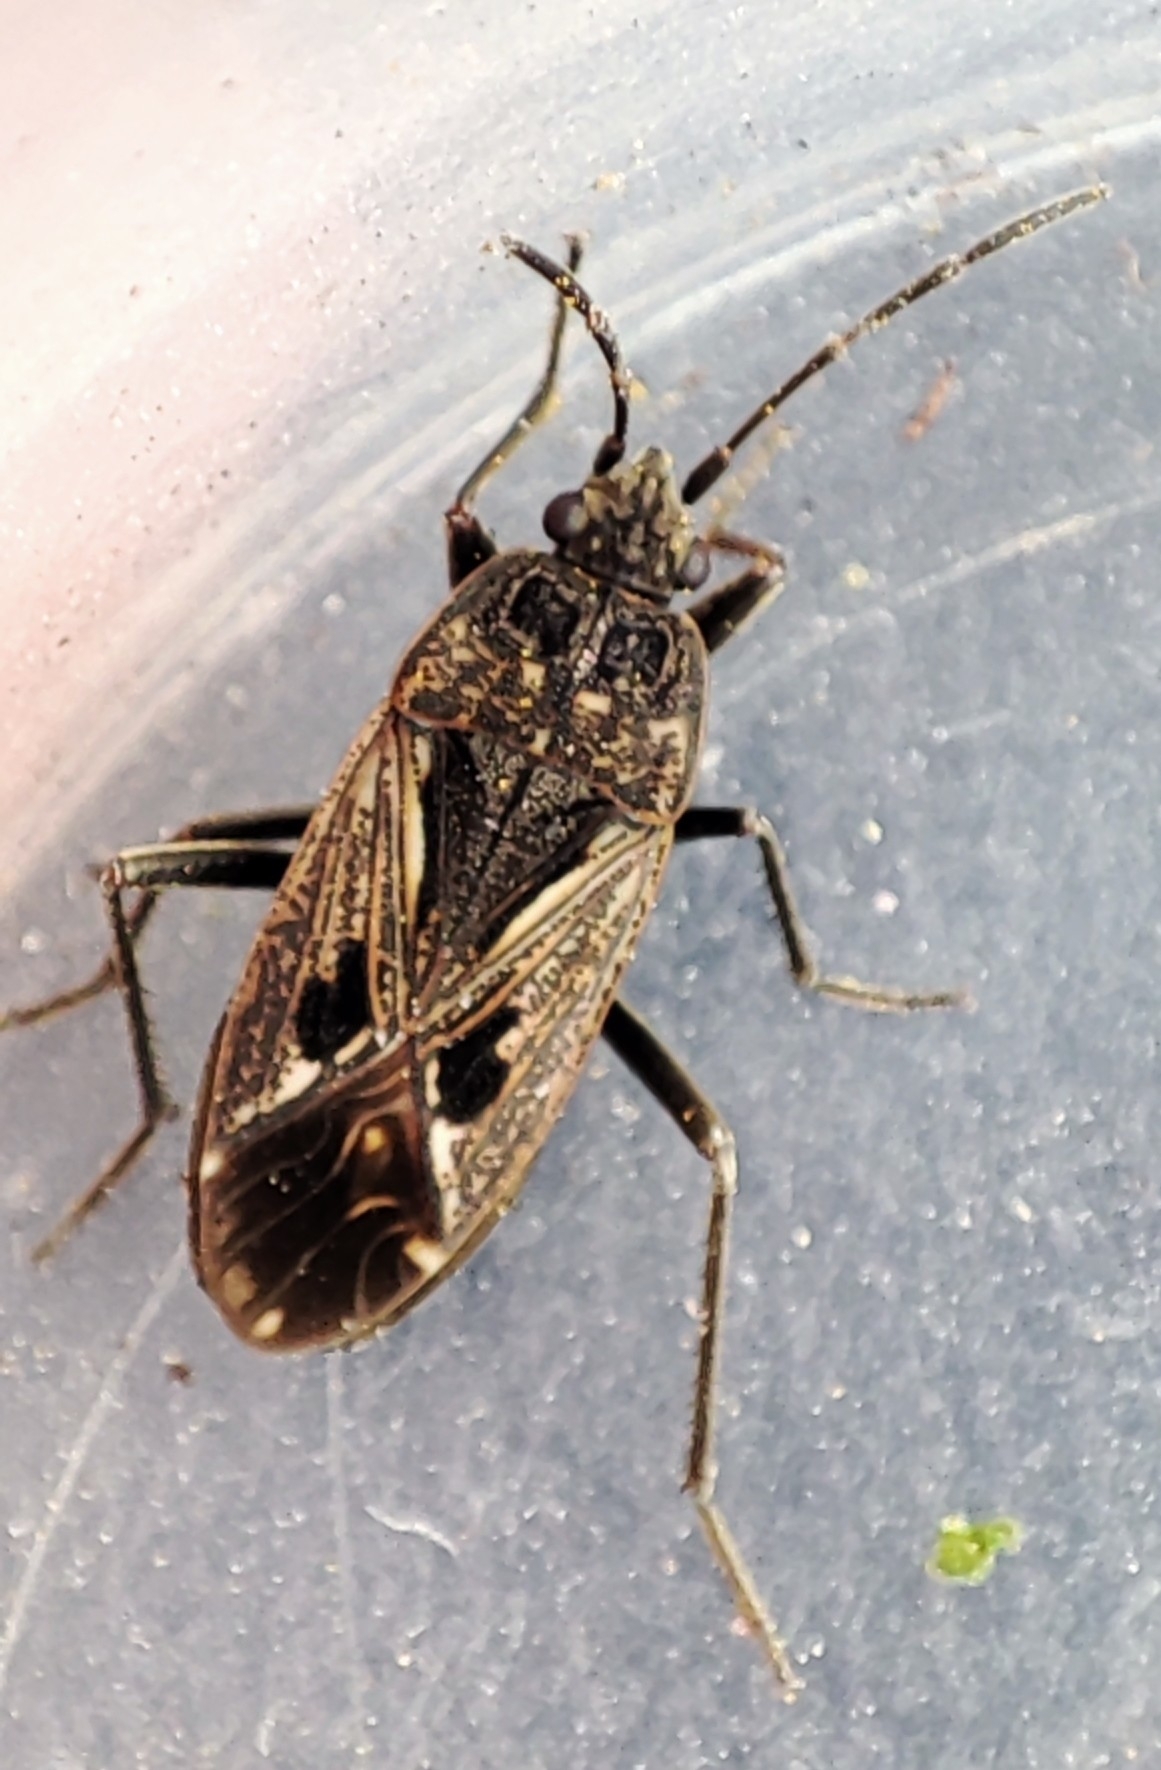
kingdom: Animalia
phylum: Arthropoda
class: Insecta
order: Hemiptera
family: Rhyparochromidae
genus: Rhyparochromus
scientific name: Rhyparochromus pini
